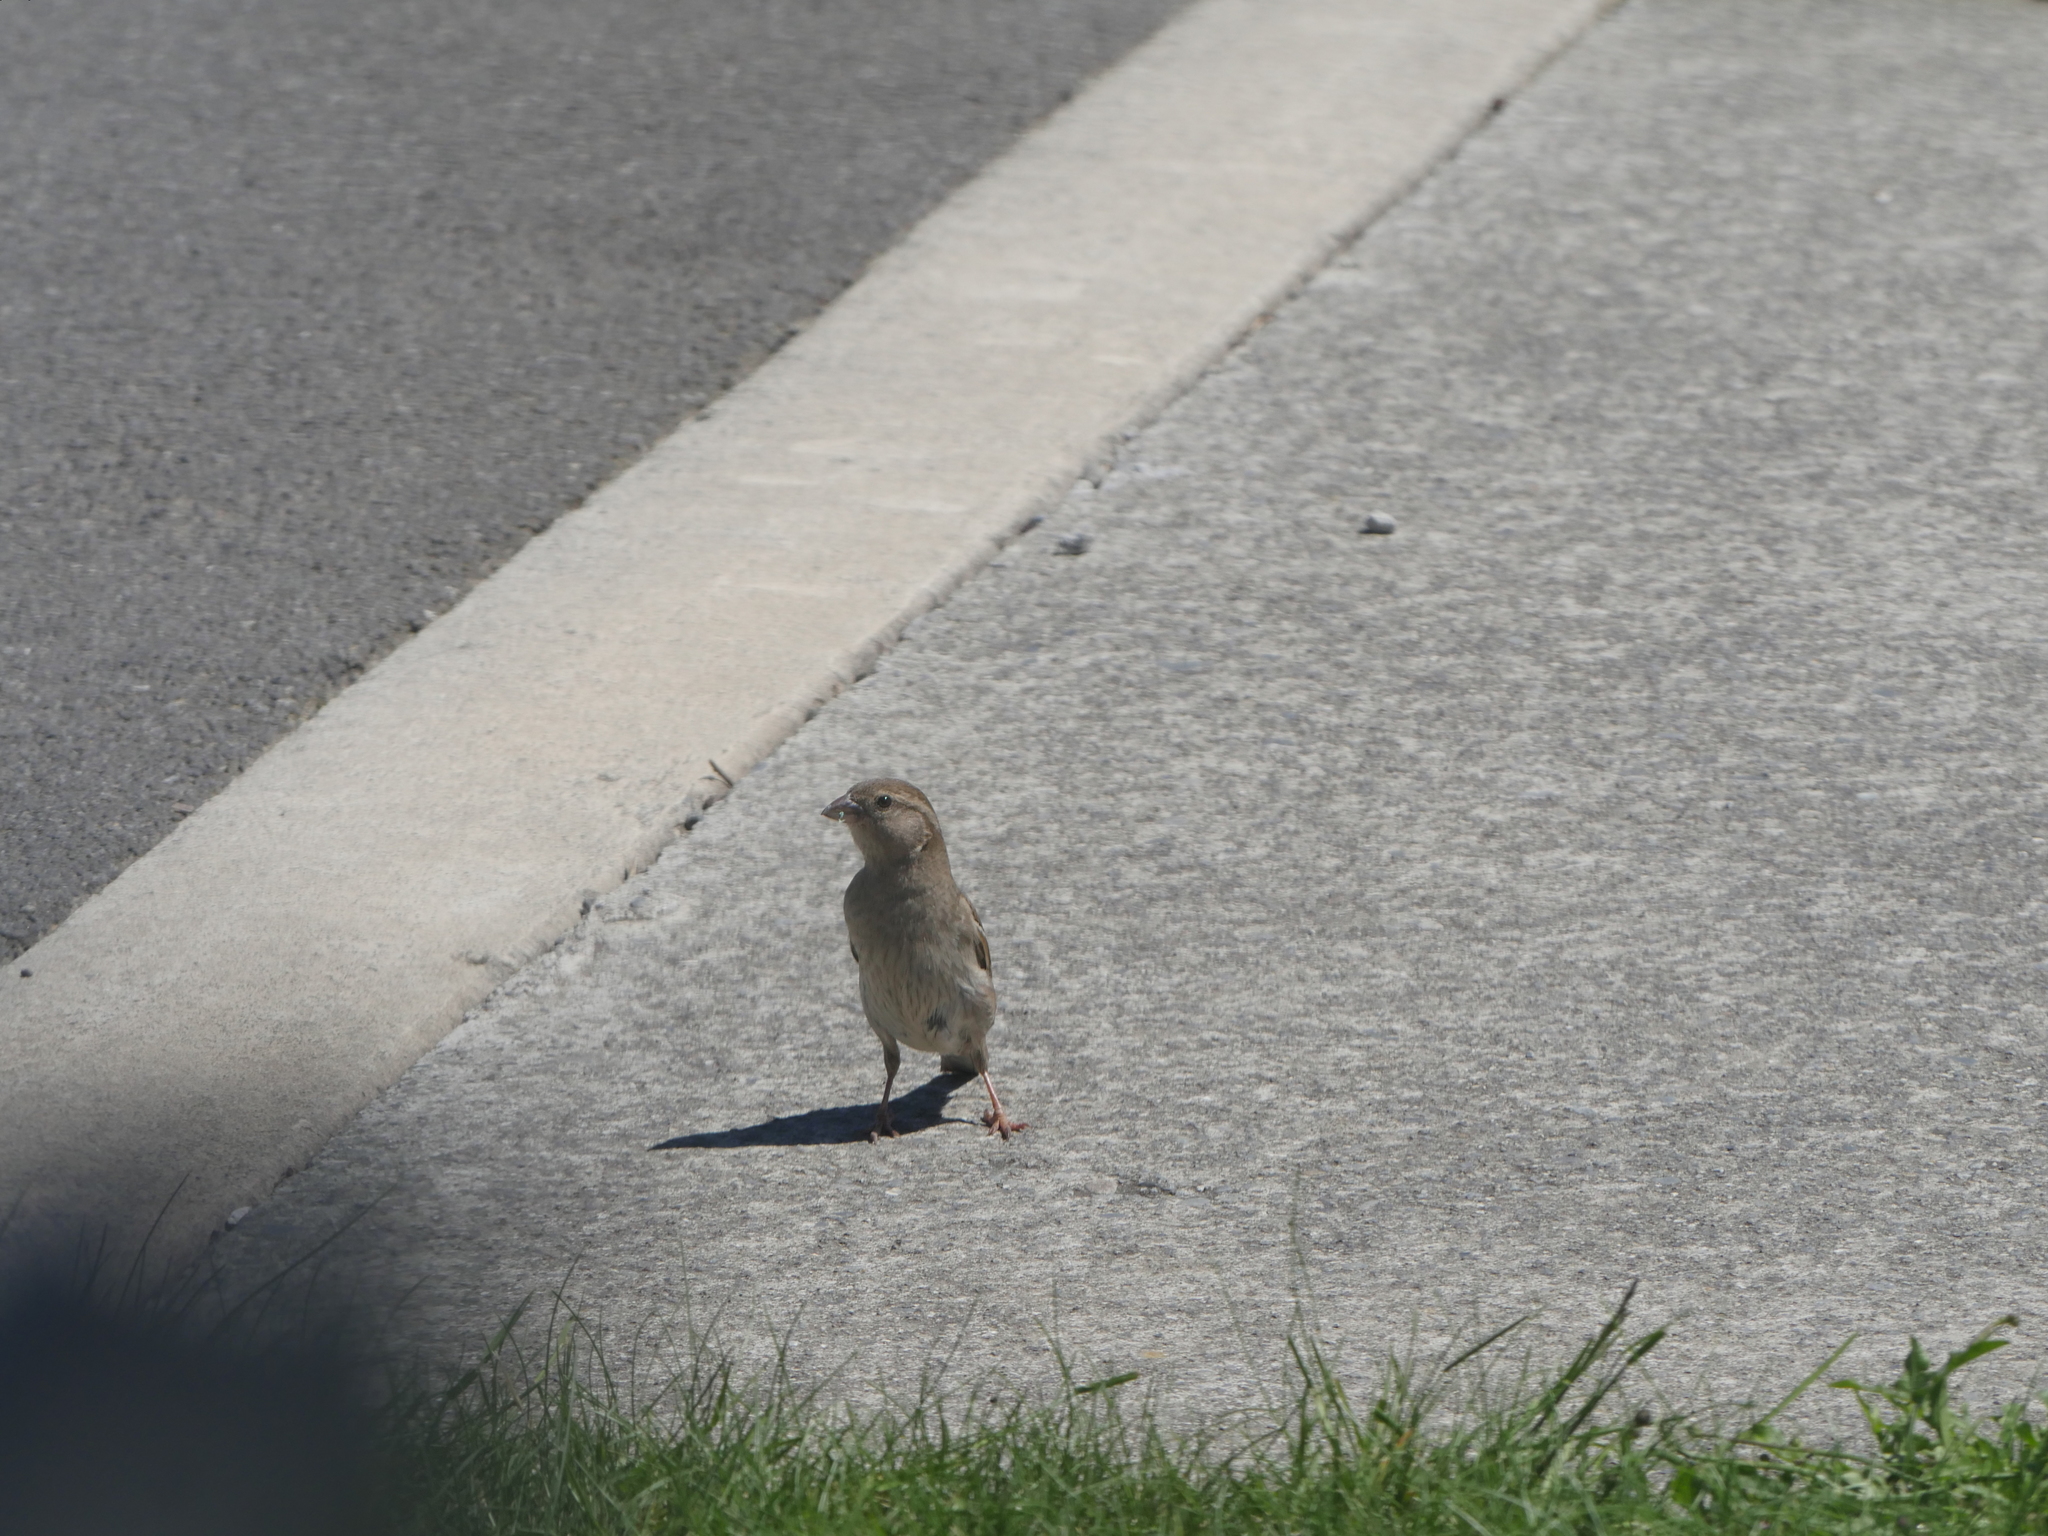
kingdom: Animalia
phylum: Chordata
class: Aves
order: Passeriformes
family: Passeridae
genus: Passer
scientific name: Passer domesticus
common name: House sparrow
